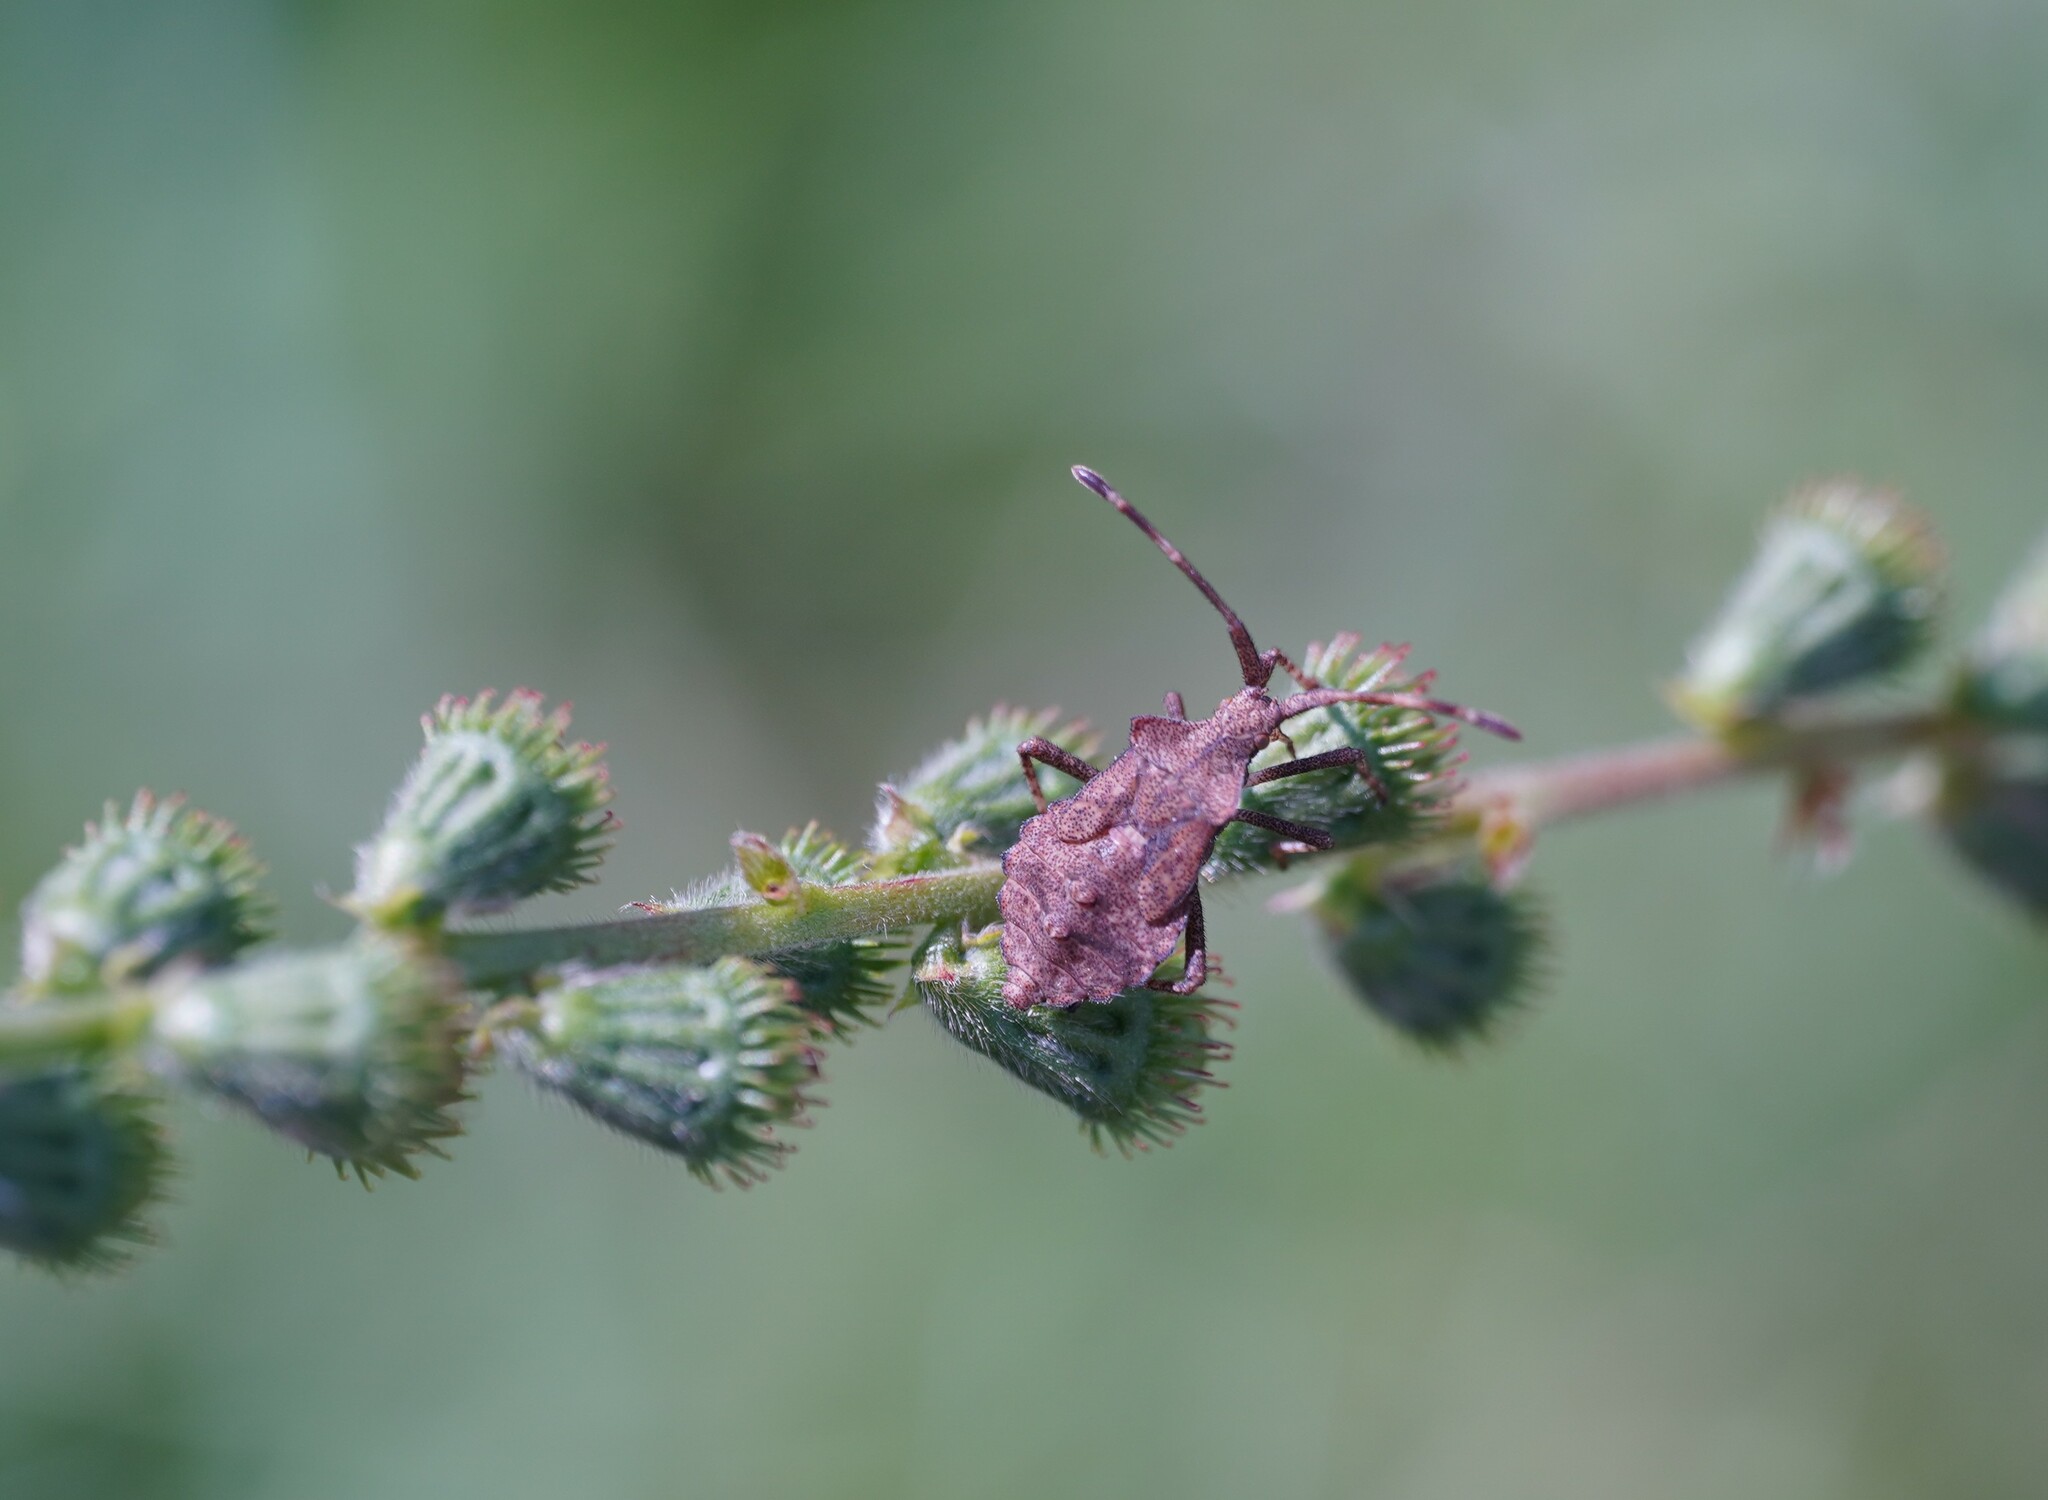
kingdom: Animalia
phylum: Arthropoda
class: Insecta
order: Hemiptera
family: Coreidae
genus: Coreus
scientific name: Coreus marginatus
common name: Dock bug
